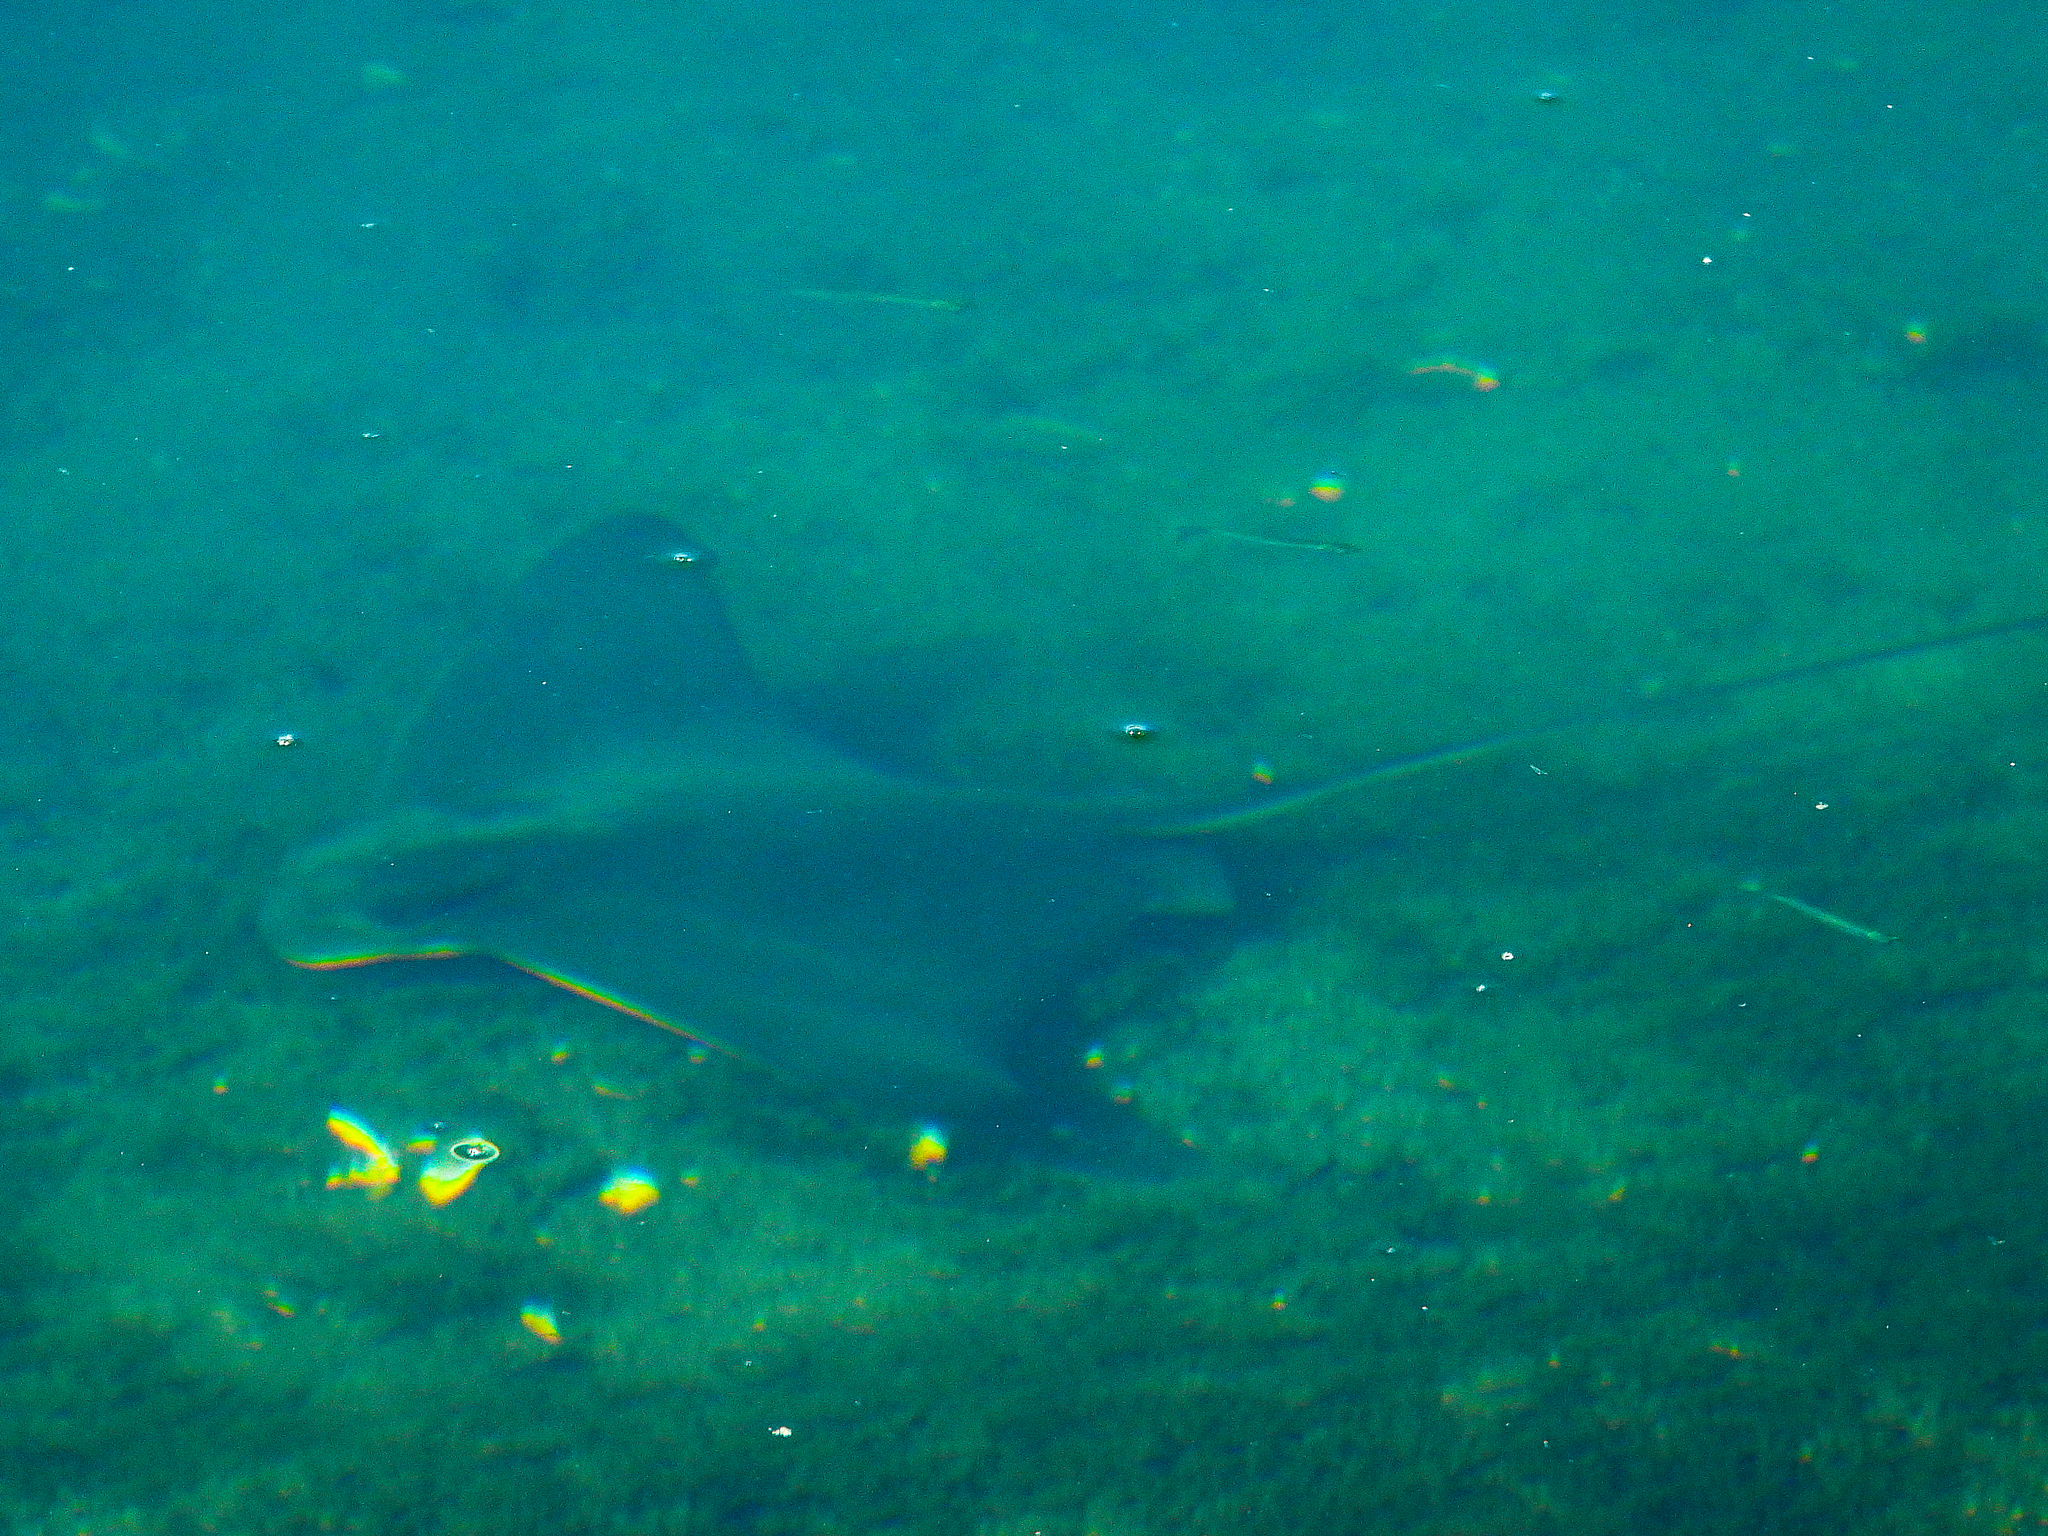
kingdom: Animalia
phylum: Chordata
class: Elasmobranchii
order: Myliobatiformes
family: Myliobatidae
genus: Myliobatis
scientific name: Myliobatis californica
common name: Bat ray
